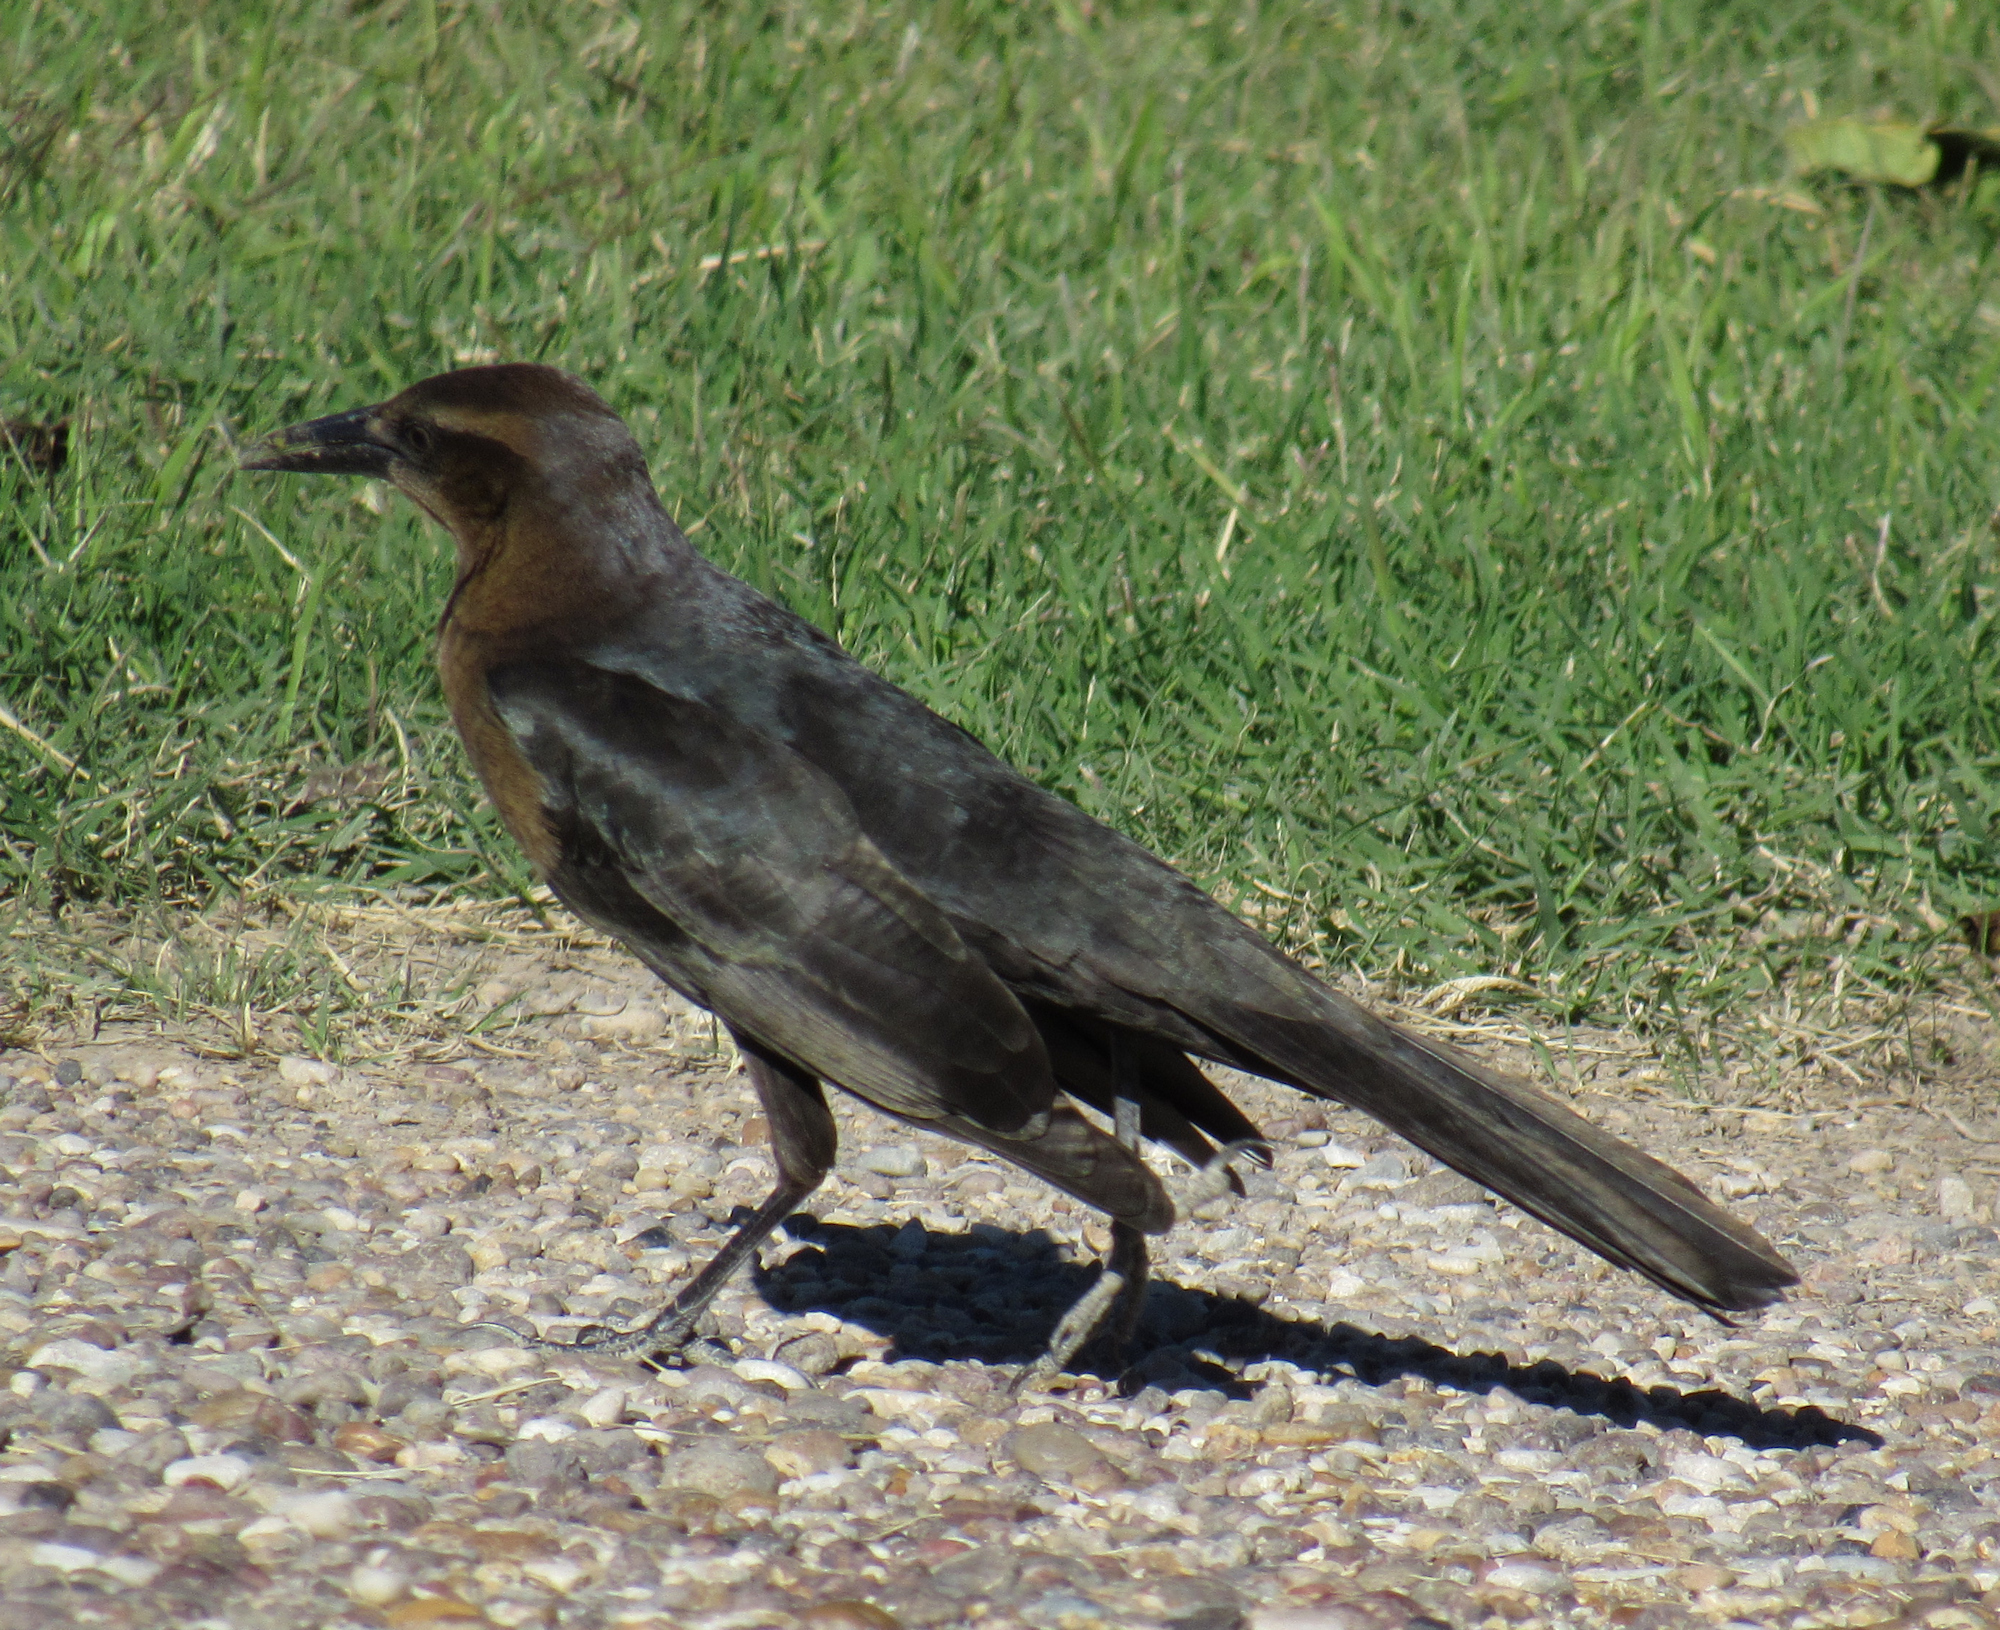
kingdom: Animalia
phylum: Chordata
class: Aves
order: Passeriformes
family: Icteridae
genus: Quiscalus
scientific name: Quiscalus mexicanus
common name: Great-tailed grackle
